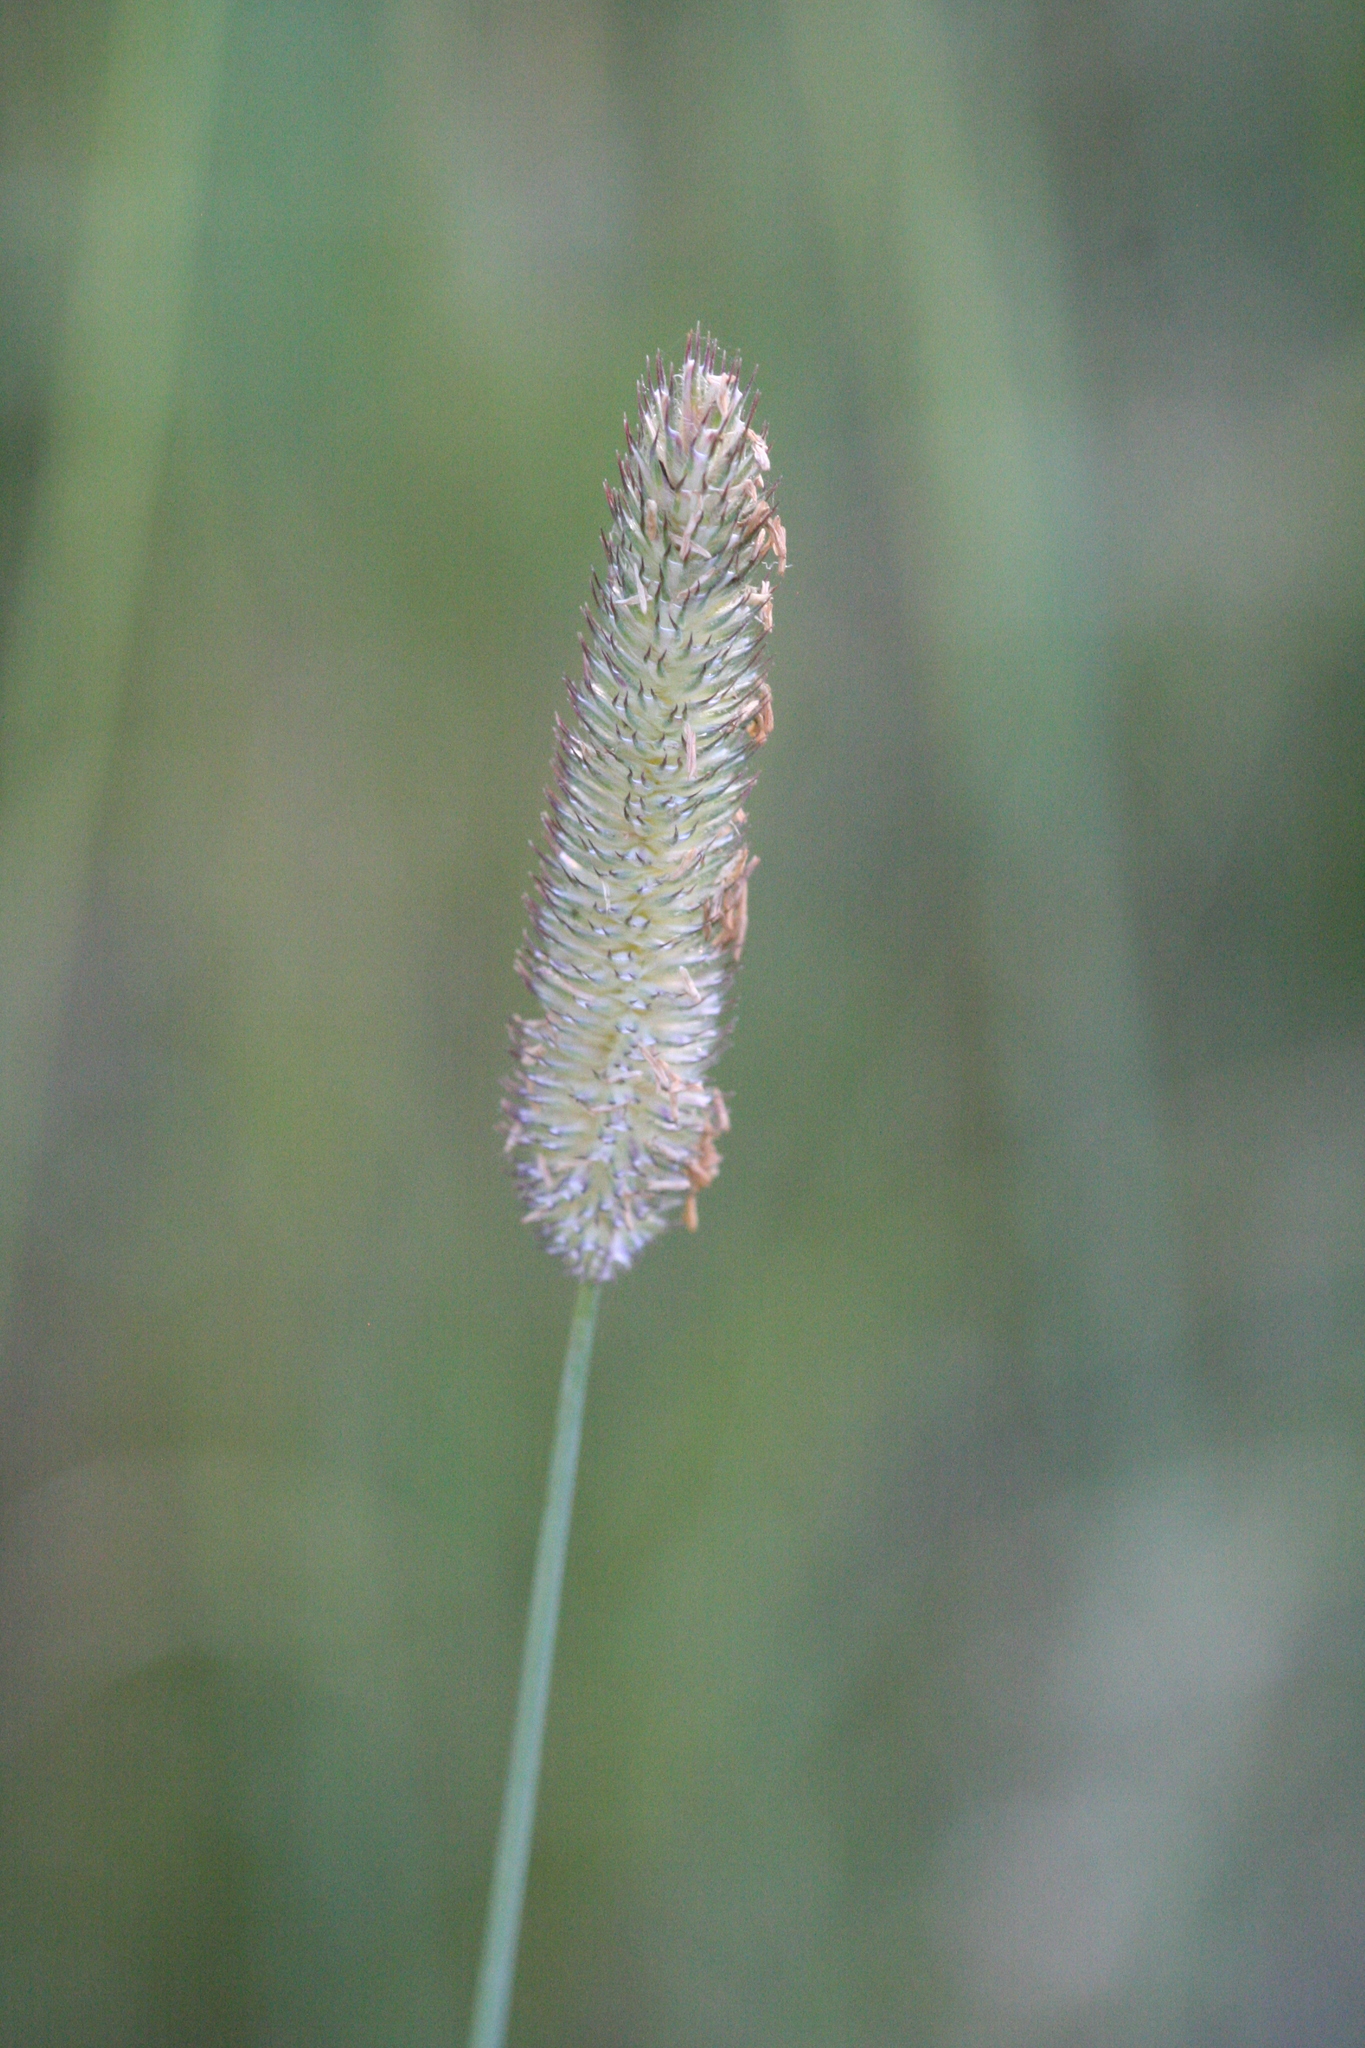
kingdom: Plantae
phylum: Tracheophyta
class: Liliopsida
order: Poales
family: Poaceae
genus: Phleum
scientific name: Phleum pratense
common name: Timothy grass
